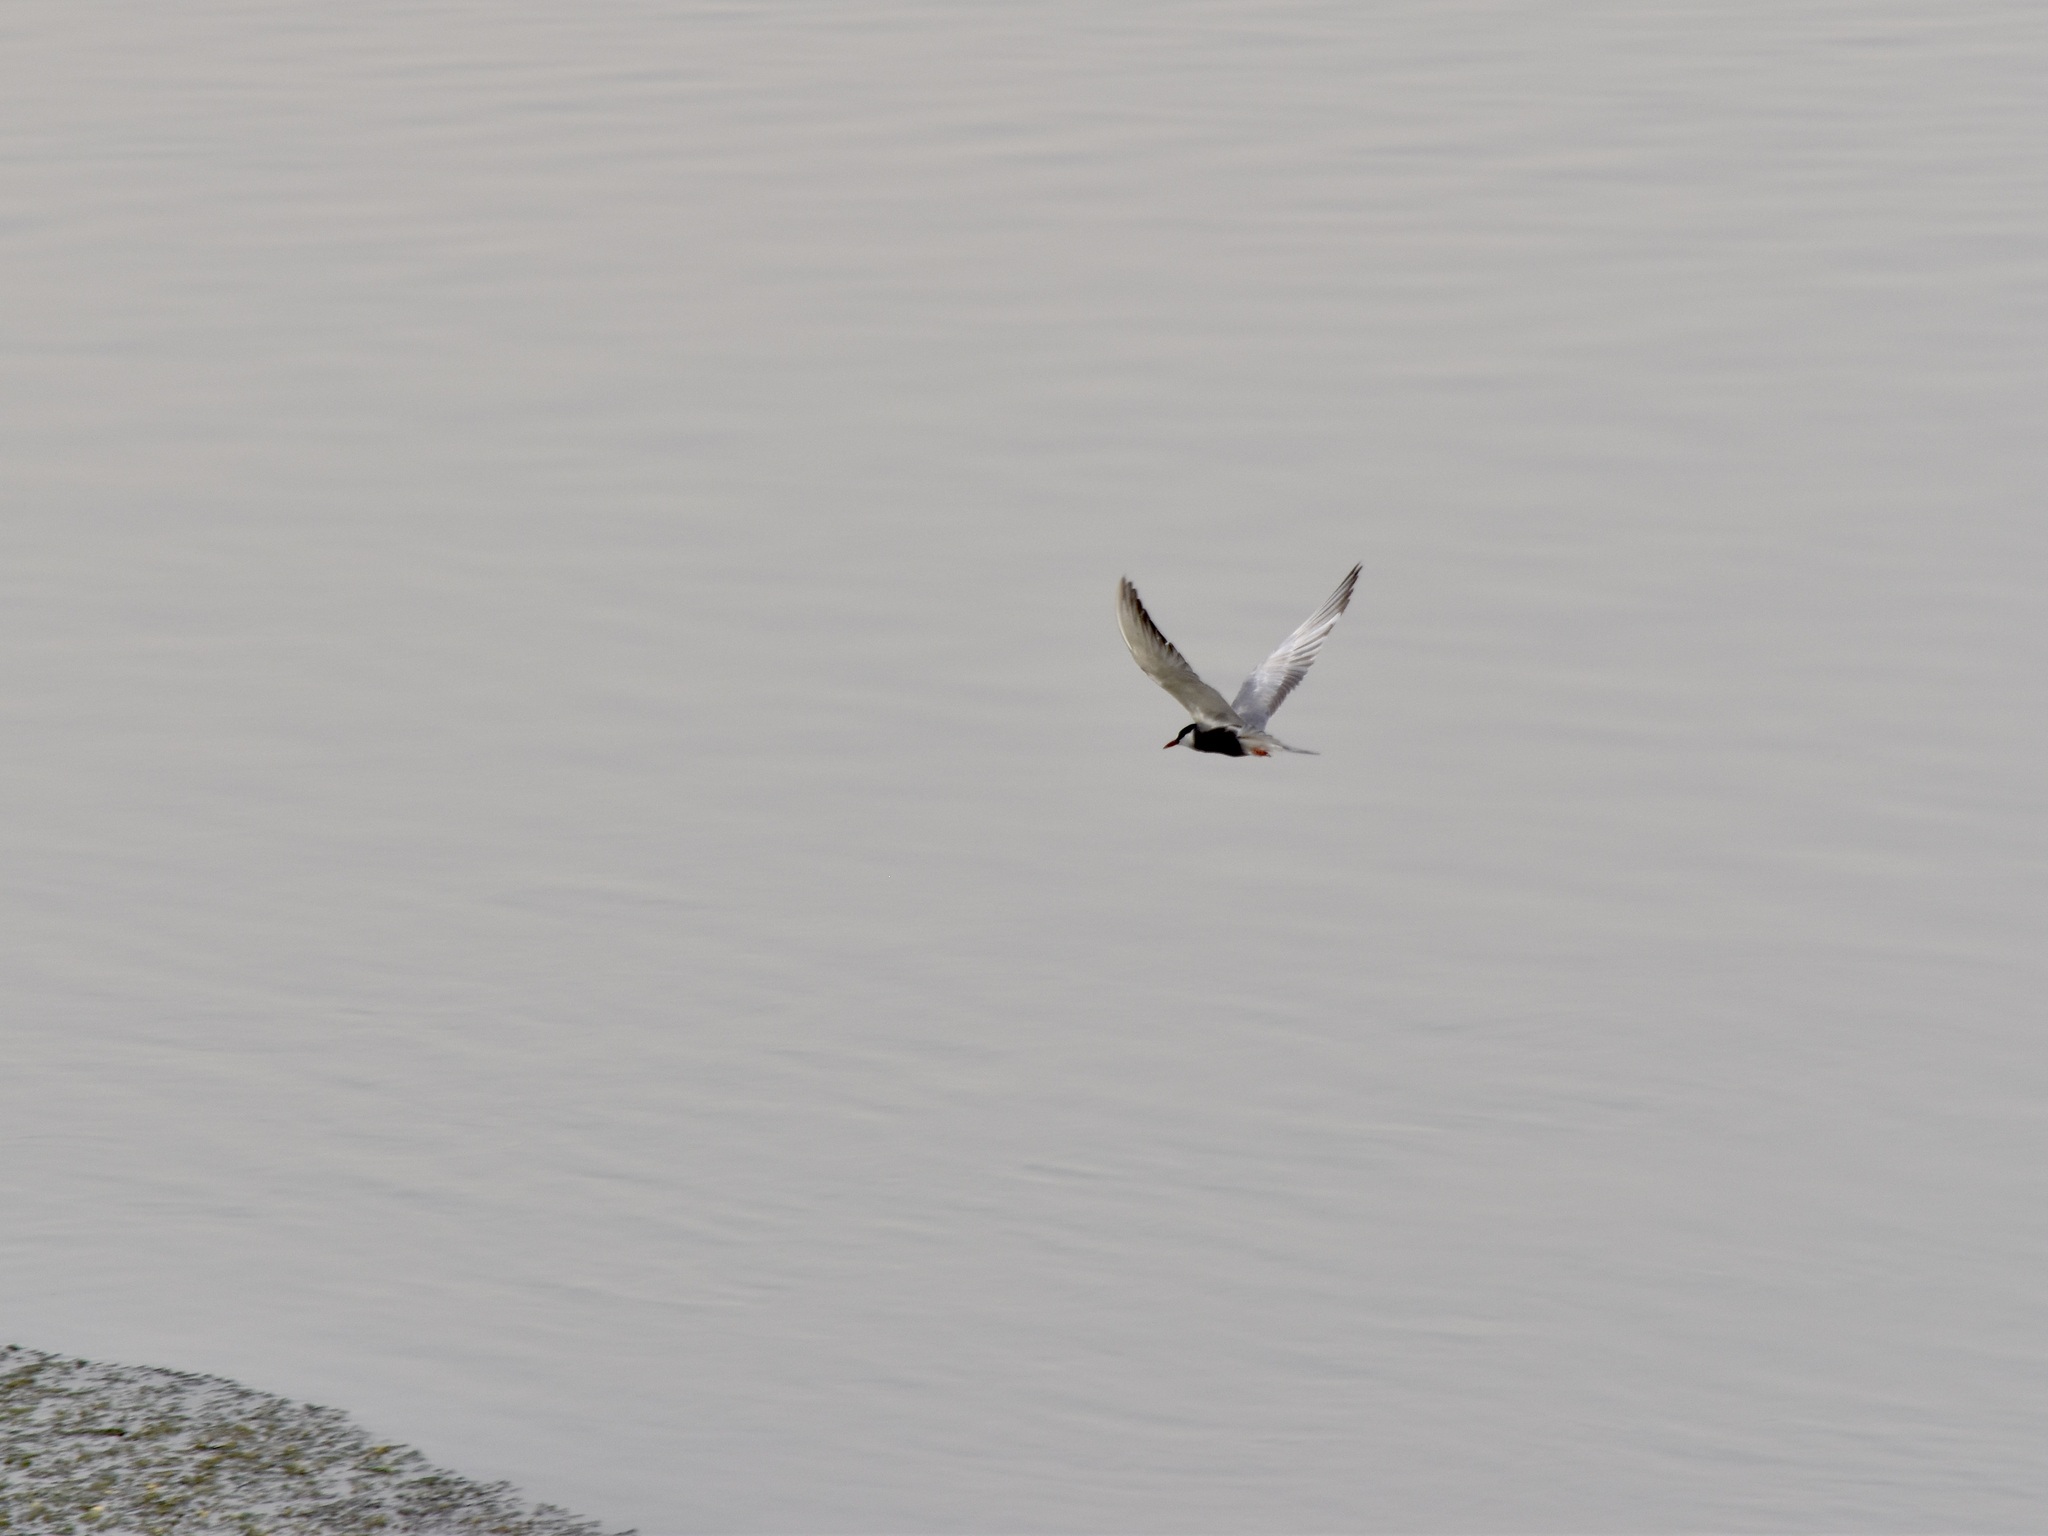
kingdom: Animalia
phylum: Chordata
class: Aves
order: Charadriiformes
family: Laridae
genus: Chlidonias
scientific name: Chlidonias hybrida
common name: Whiskered tern
